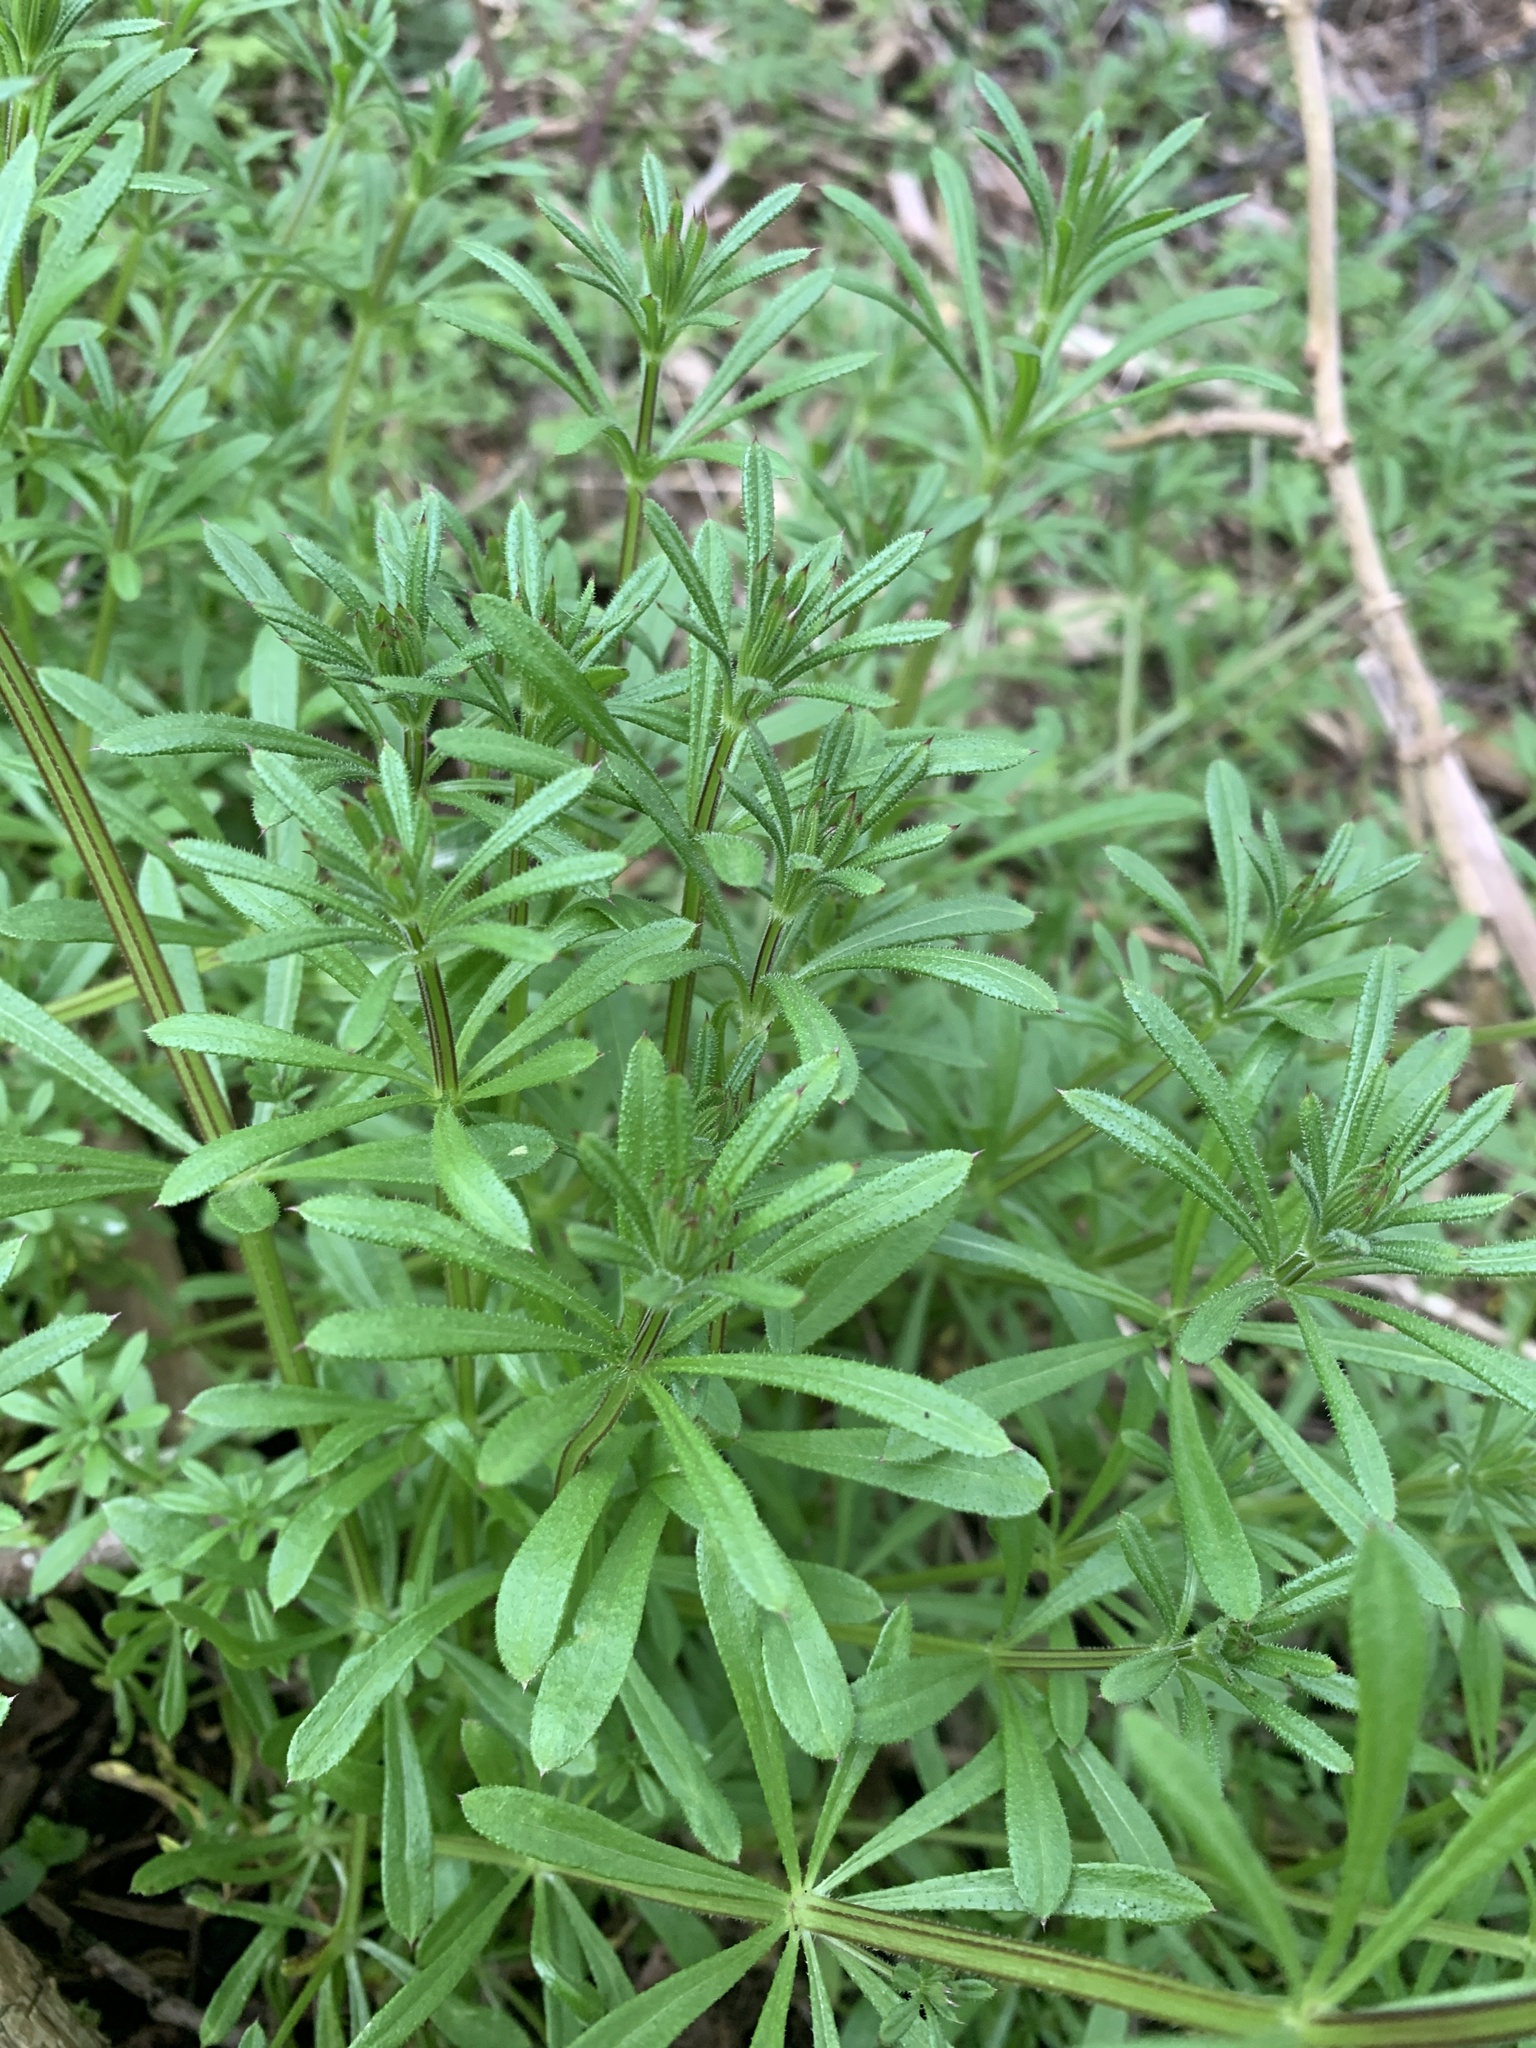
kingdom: Plantae
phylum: Tracheophyta
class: Magnoliopsida
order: Gentianales
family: Rubiaceae
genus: Galium
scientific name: Galium aparine
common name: Cleavers
